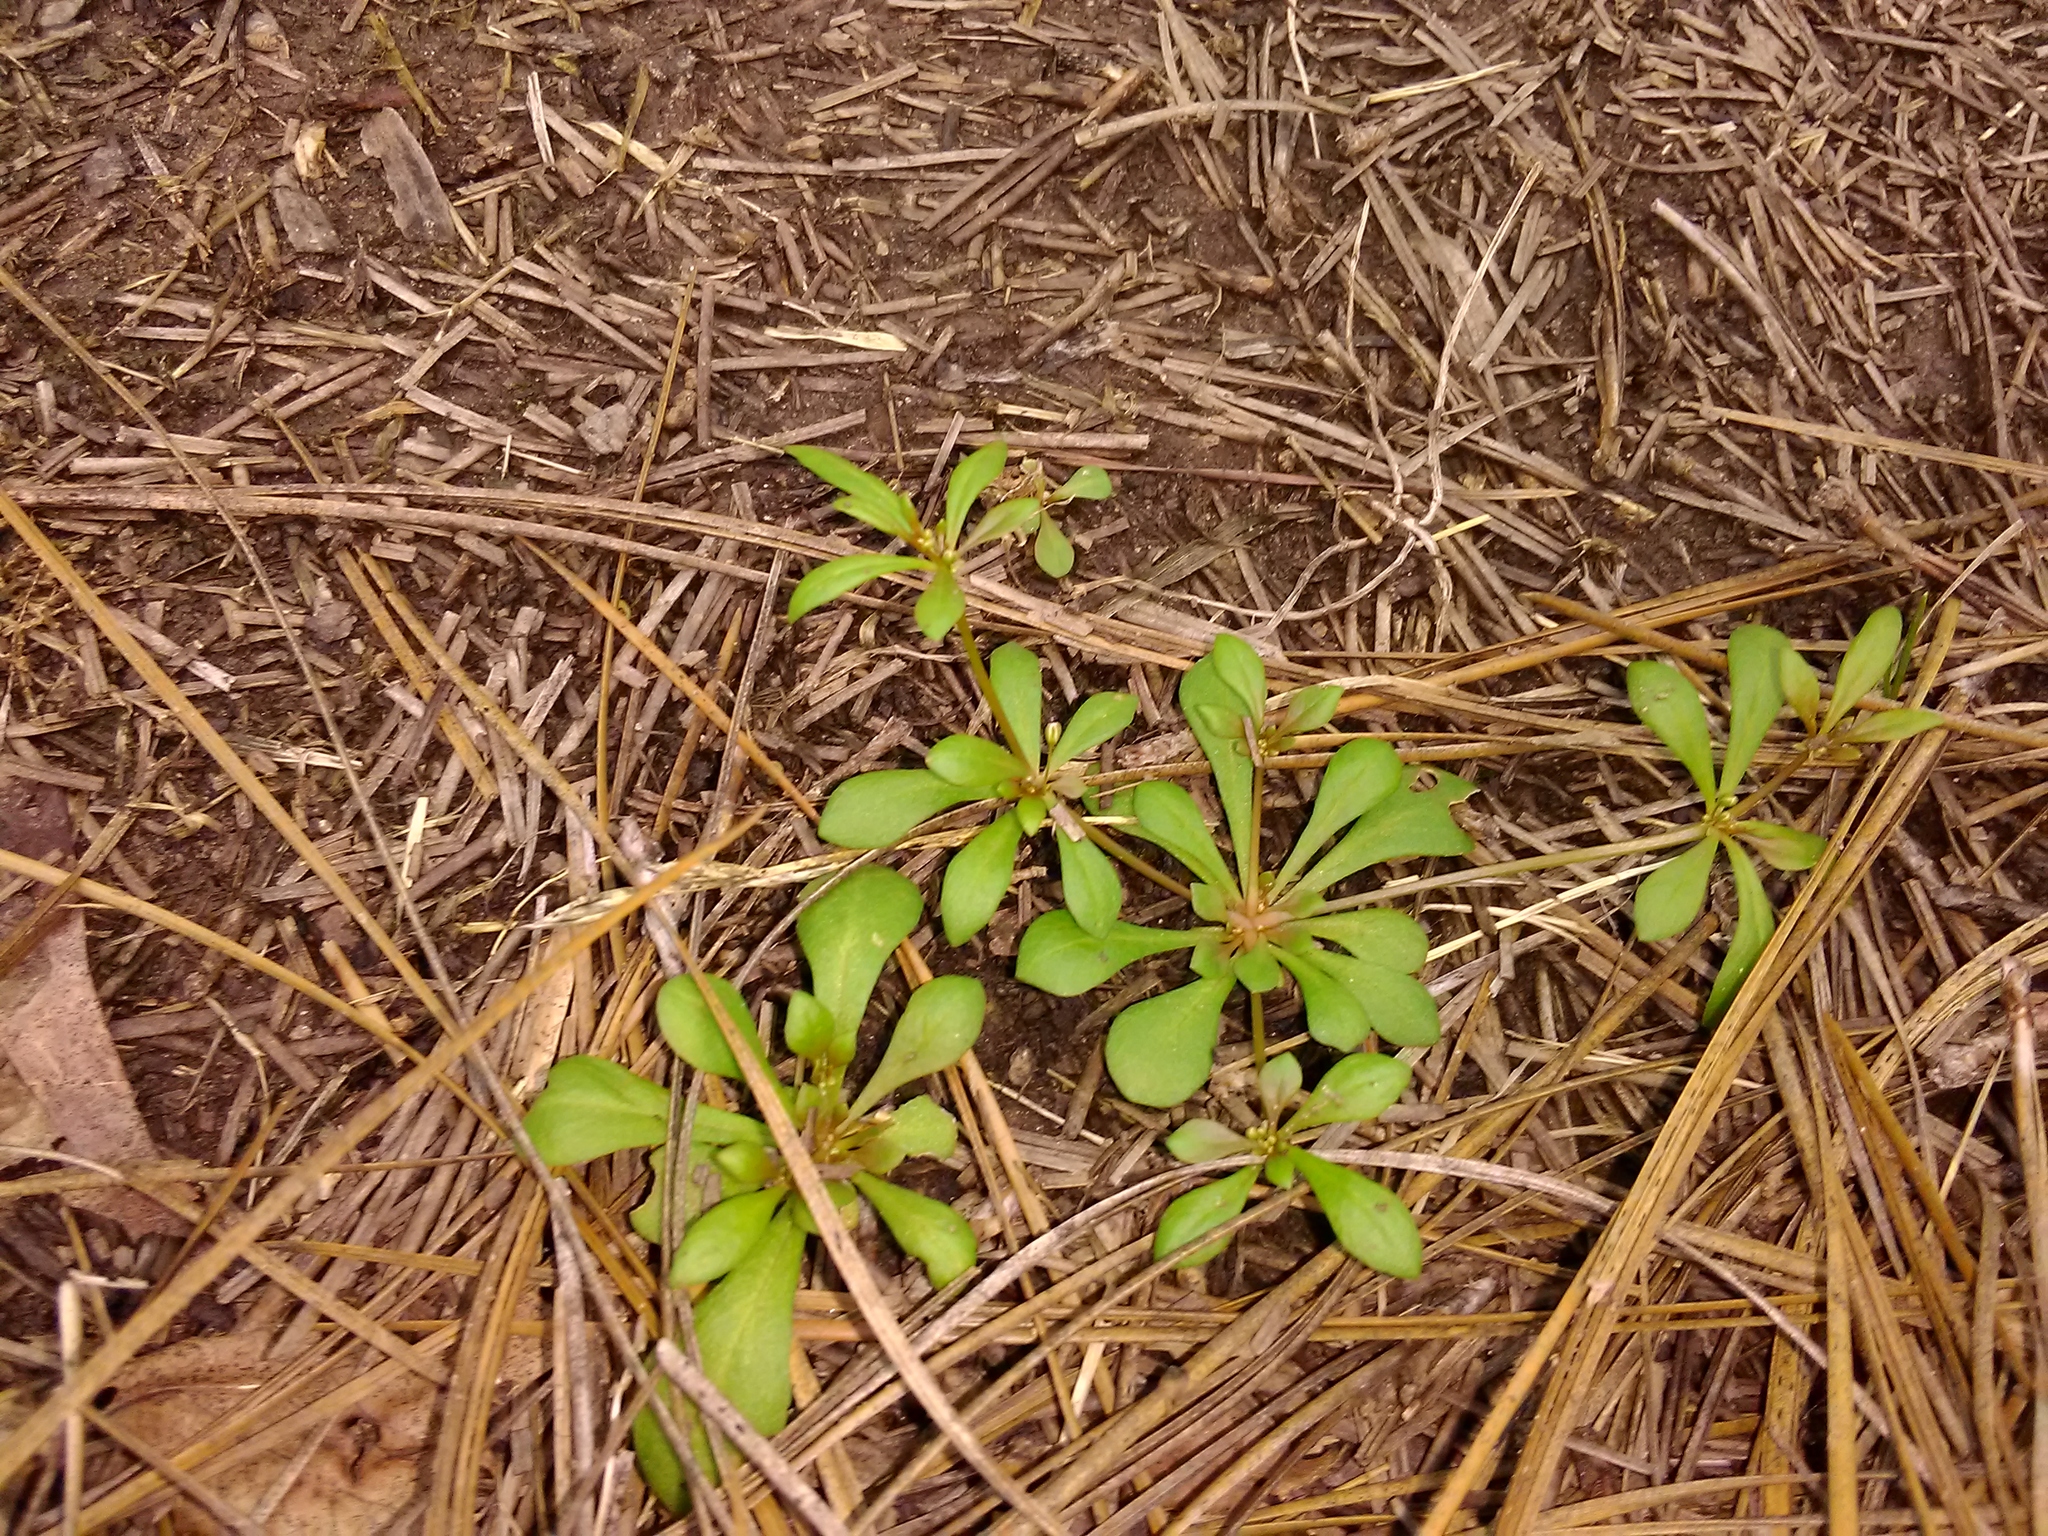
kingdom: Plantae
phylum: Tracheophyta
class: Magnoliopsida
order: Caryophyllales
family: Molluginaceae
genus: Mollugo
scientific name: Mollugo verticillata
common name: Green carpetweed
